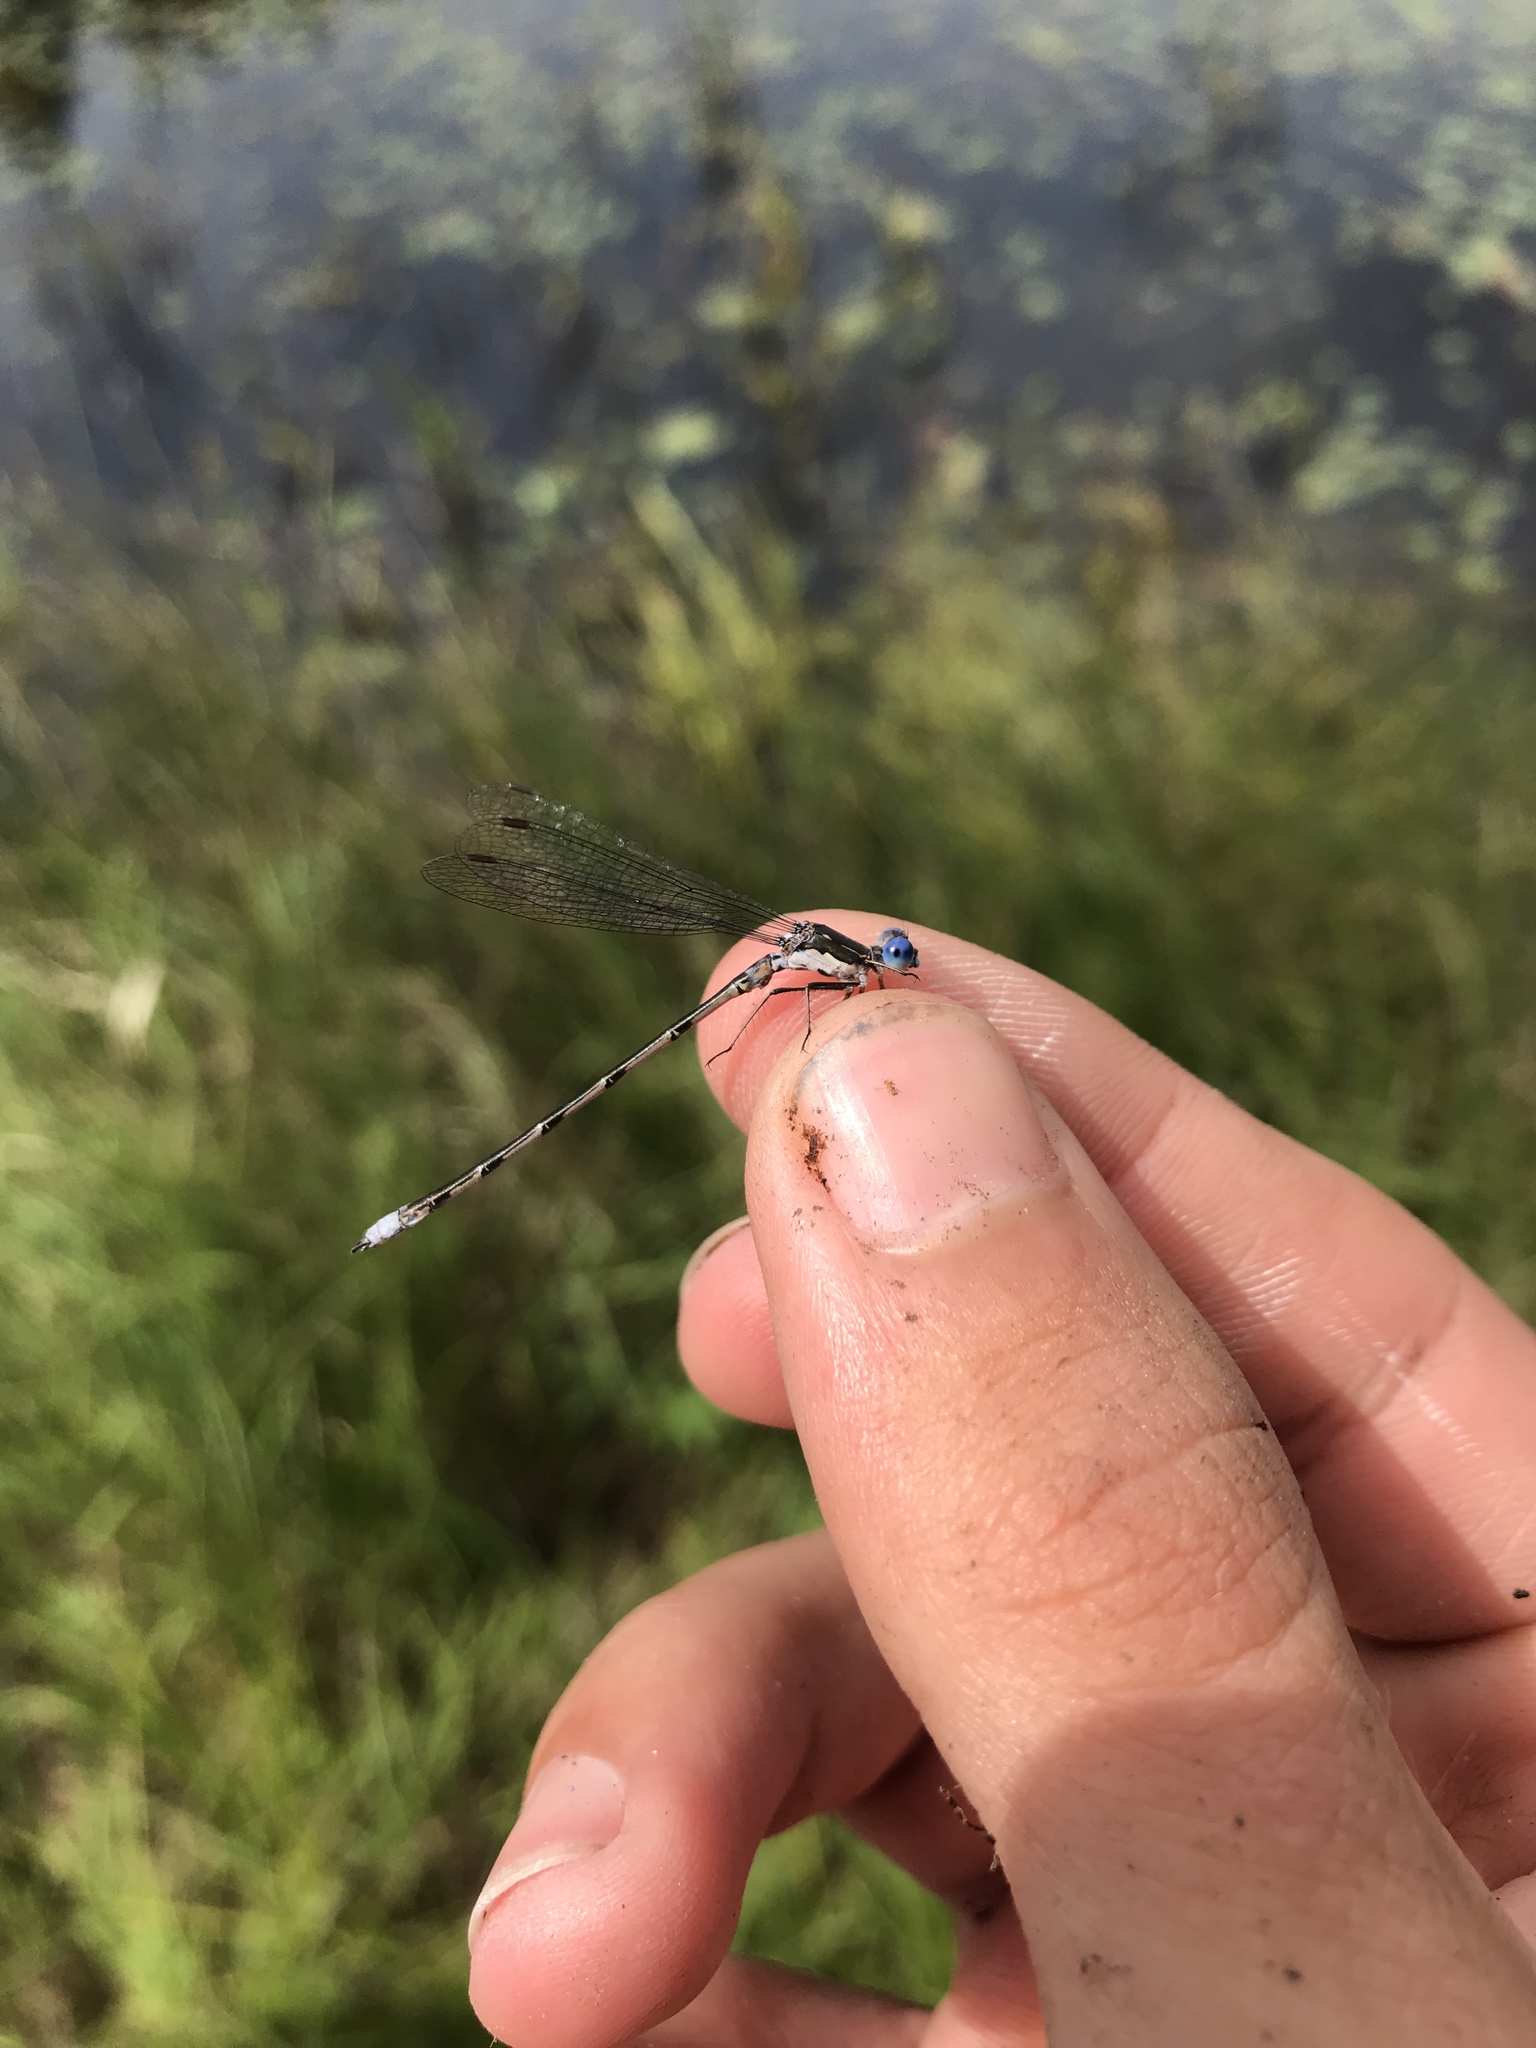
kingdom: Animalia
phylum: Arthropoda
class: Insecta
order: Odonata
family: Lestidae
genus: Lestes
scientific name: Lestes congener
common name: Spotted spreadwing
